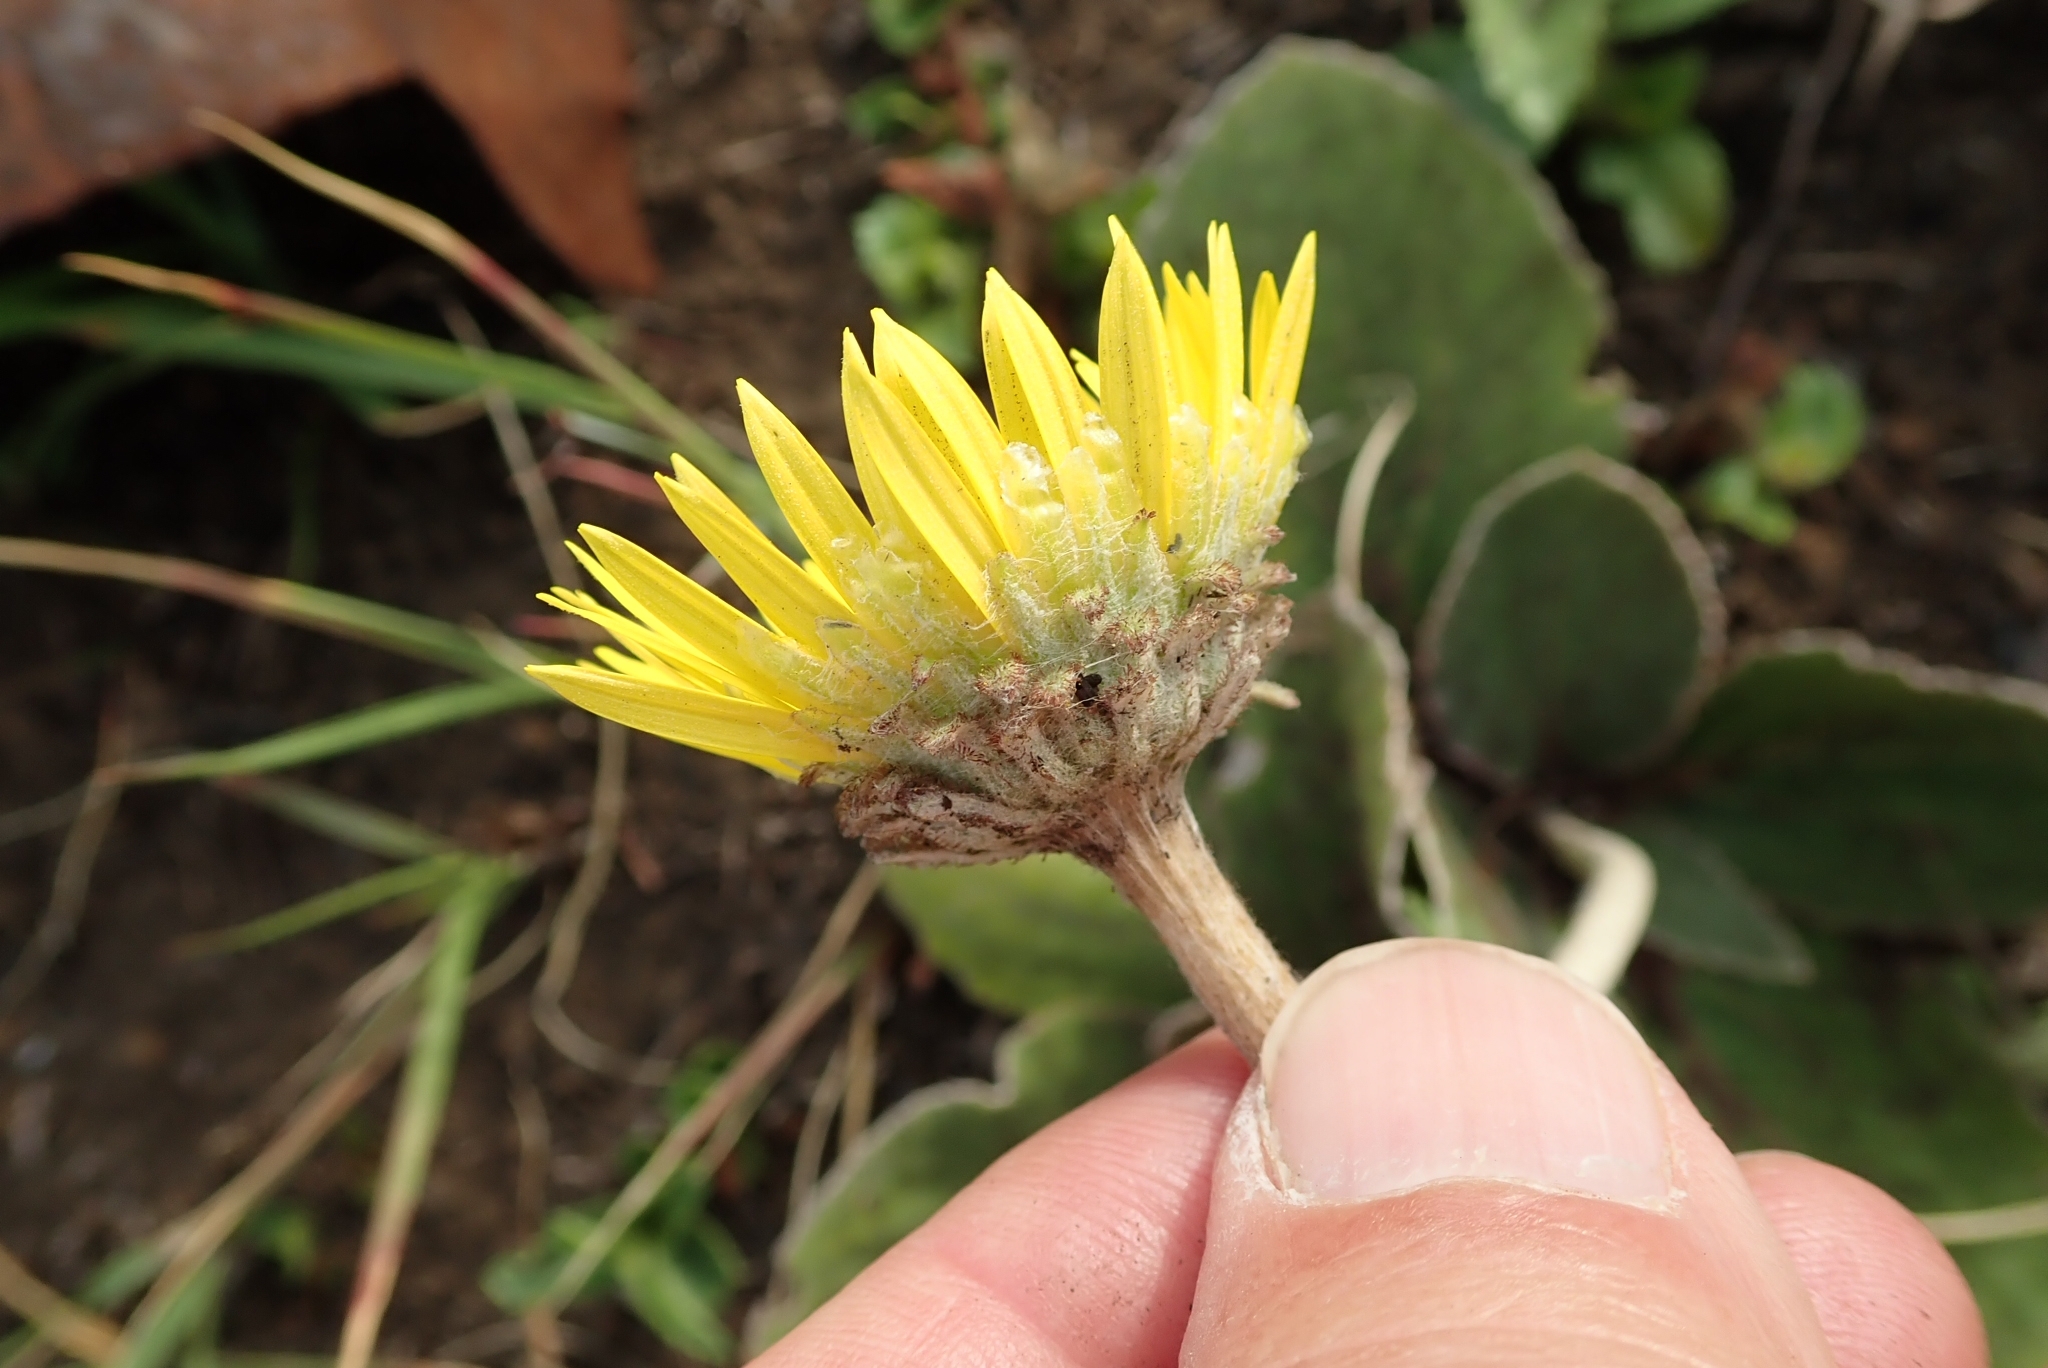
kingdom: Plantae
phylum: Tracheophyta
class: Magnoliopsida
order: Asterales
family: Asteraceae
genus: Haplocarpha
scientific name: Haplocarpha scaposa
